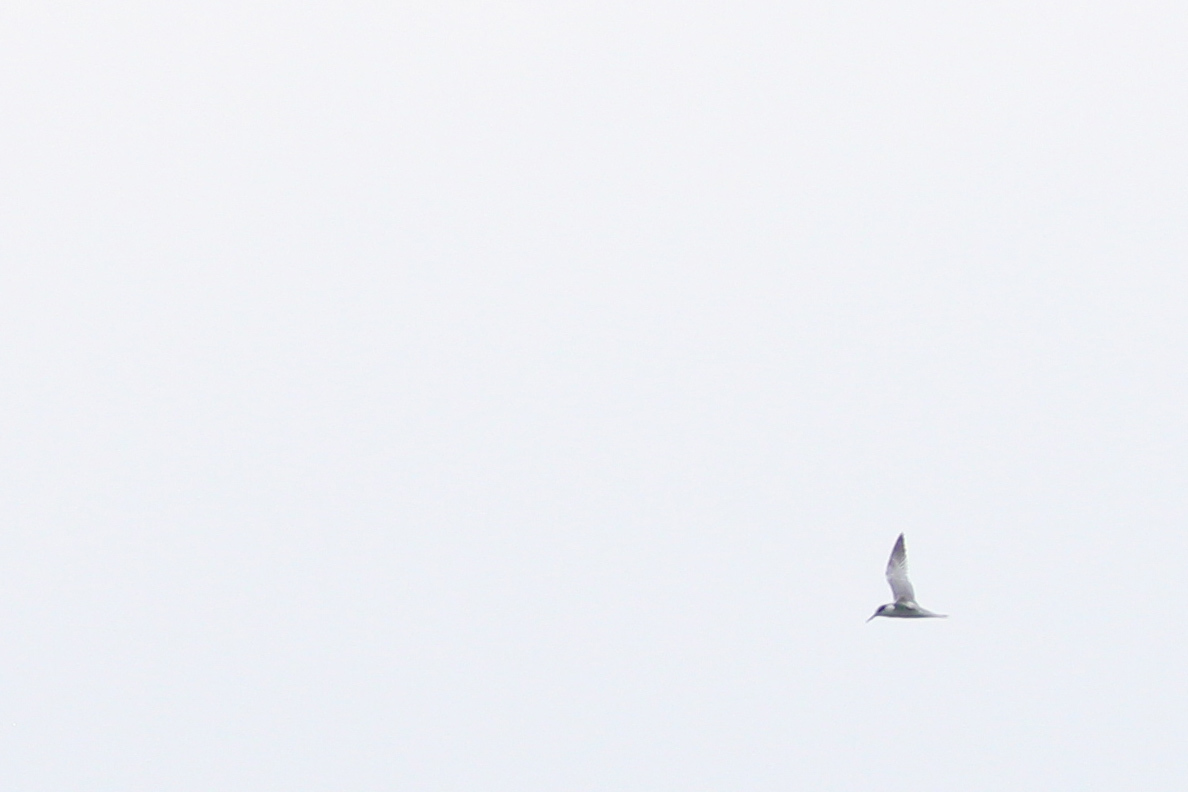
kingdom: Animalia
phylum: Chordata
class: Aves
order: Charadriiformes
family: Laridae
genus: Thalasseus
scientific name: Thalasseus sandvicensis
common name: Sandwich tern
